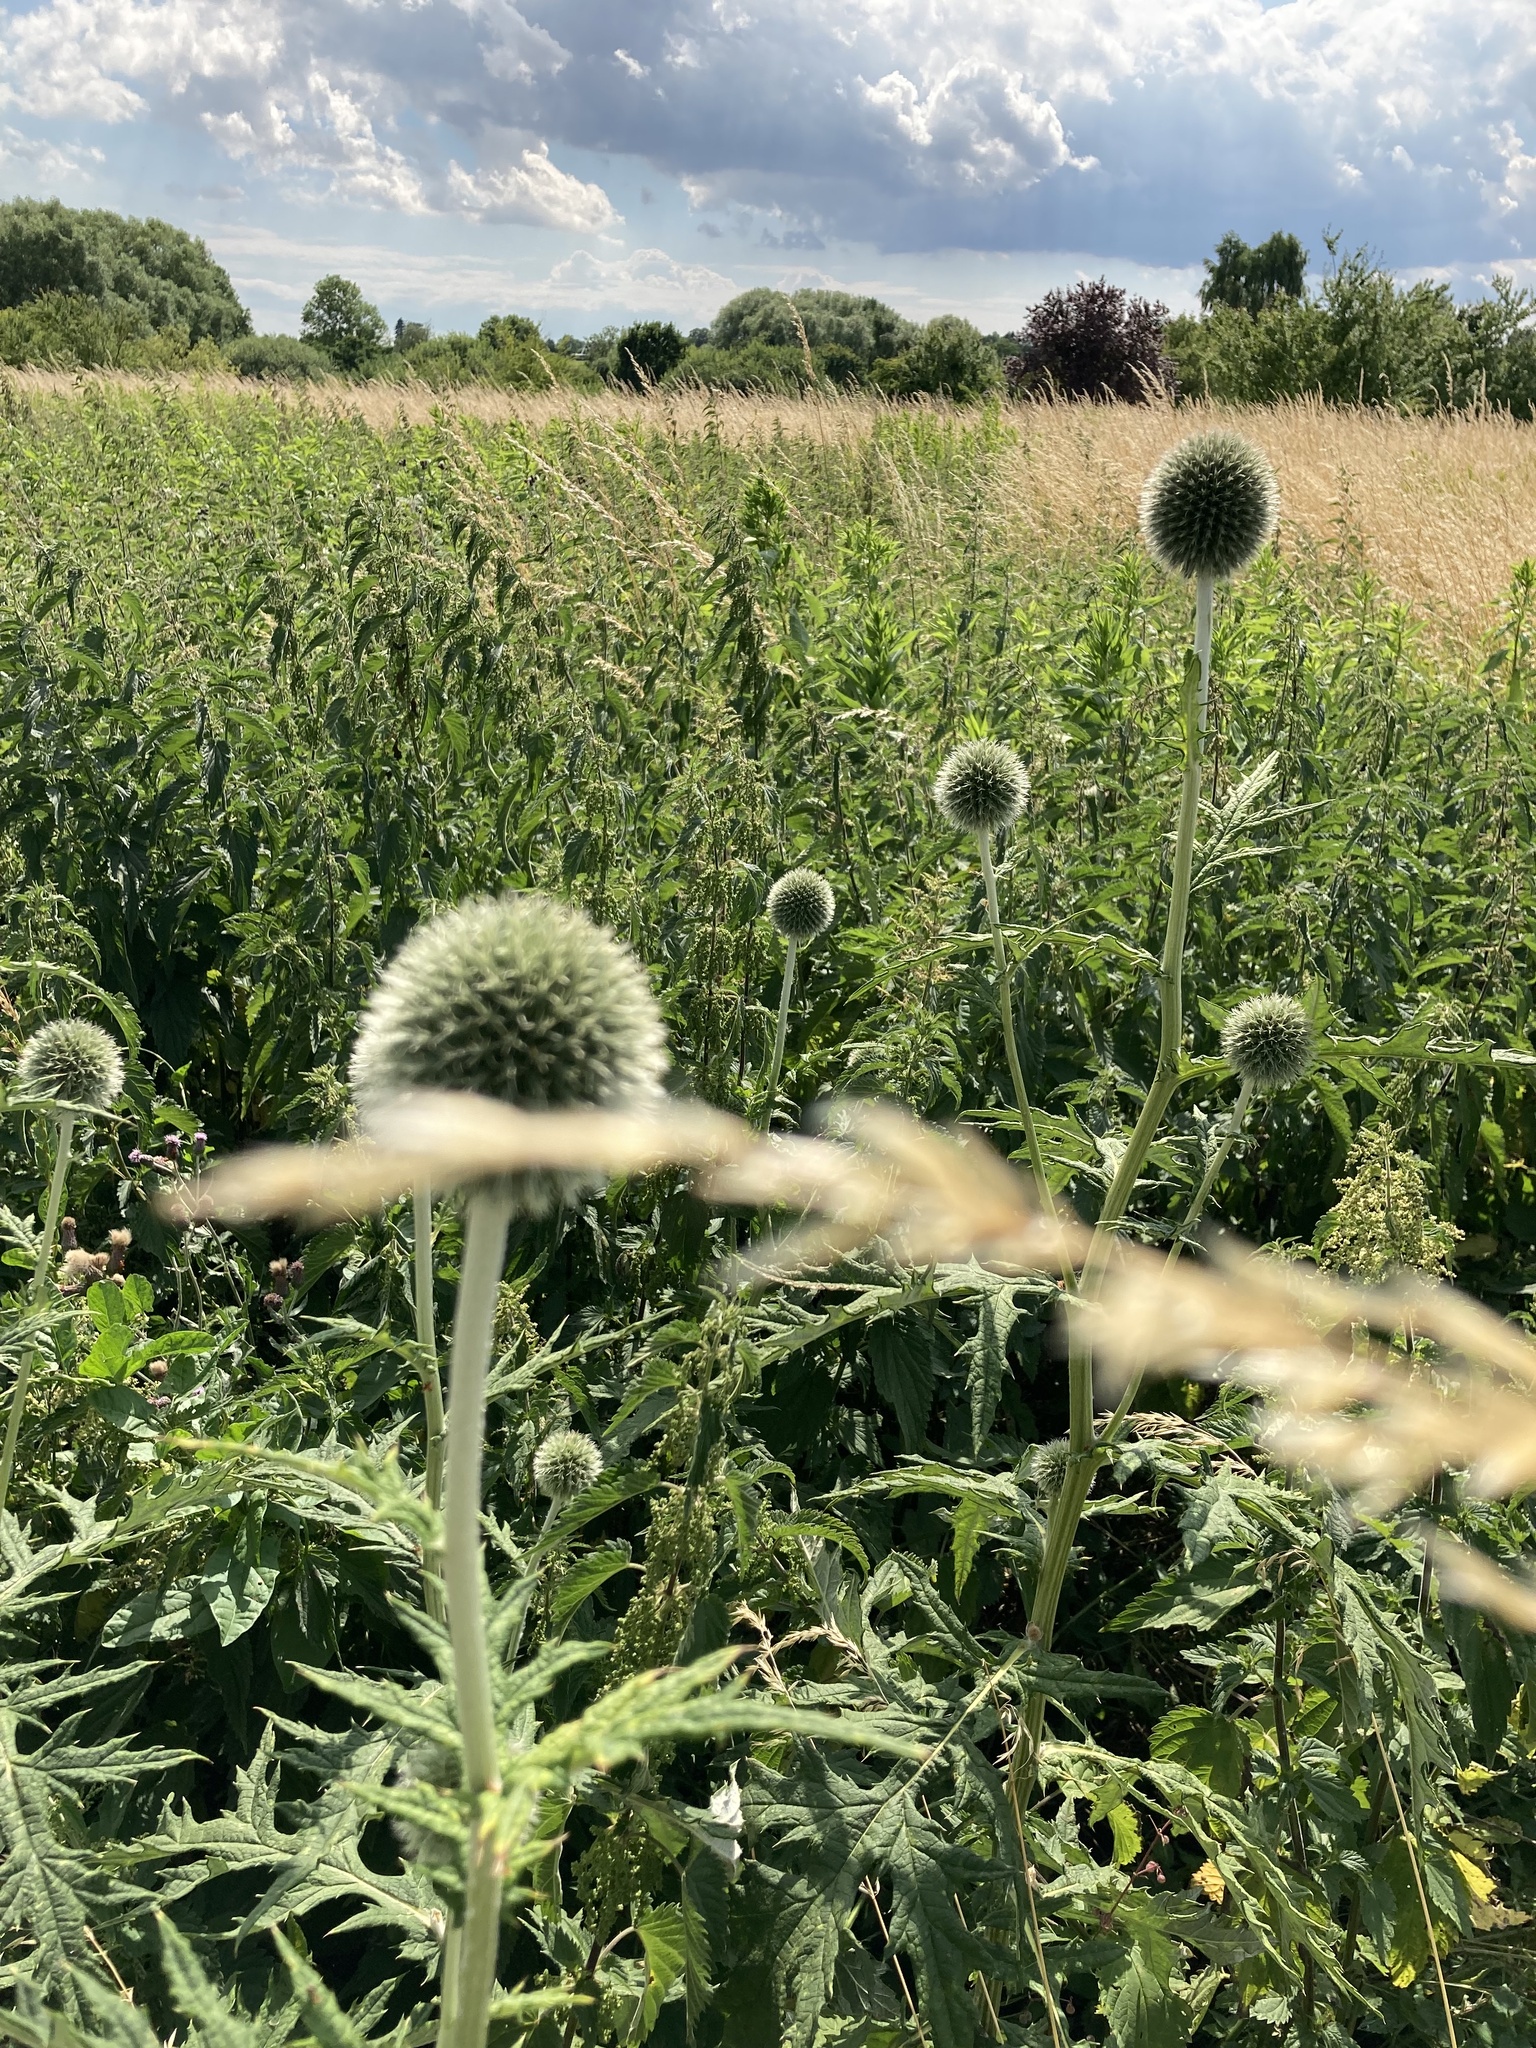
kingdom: Plantae
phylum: Tracheophyta
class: Magnoliopsida
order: Asterales
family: Asteraceae
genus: Echinops
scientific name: Echinops exaltatus
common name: Globe-thistle
